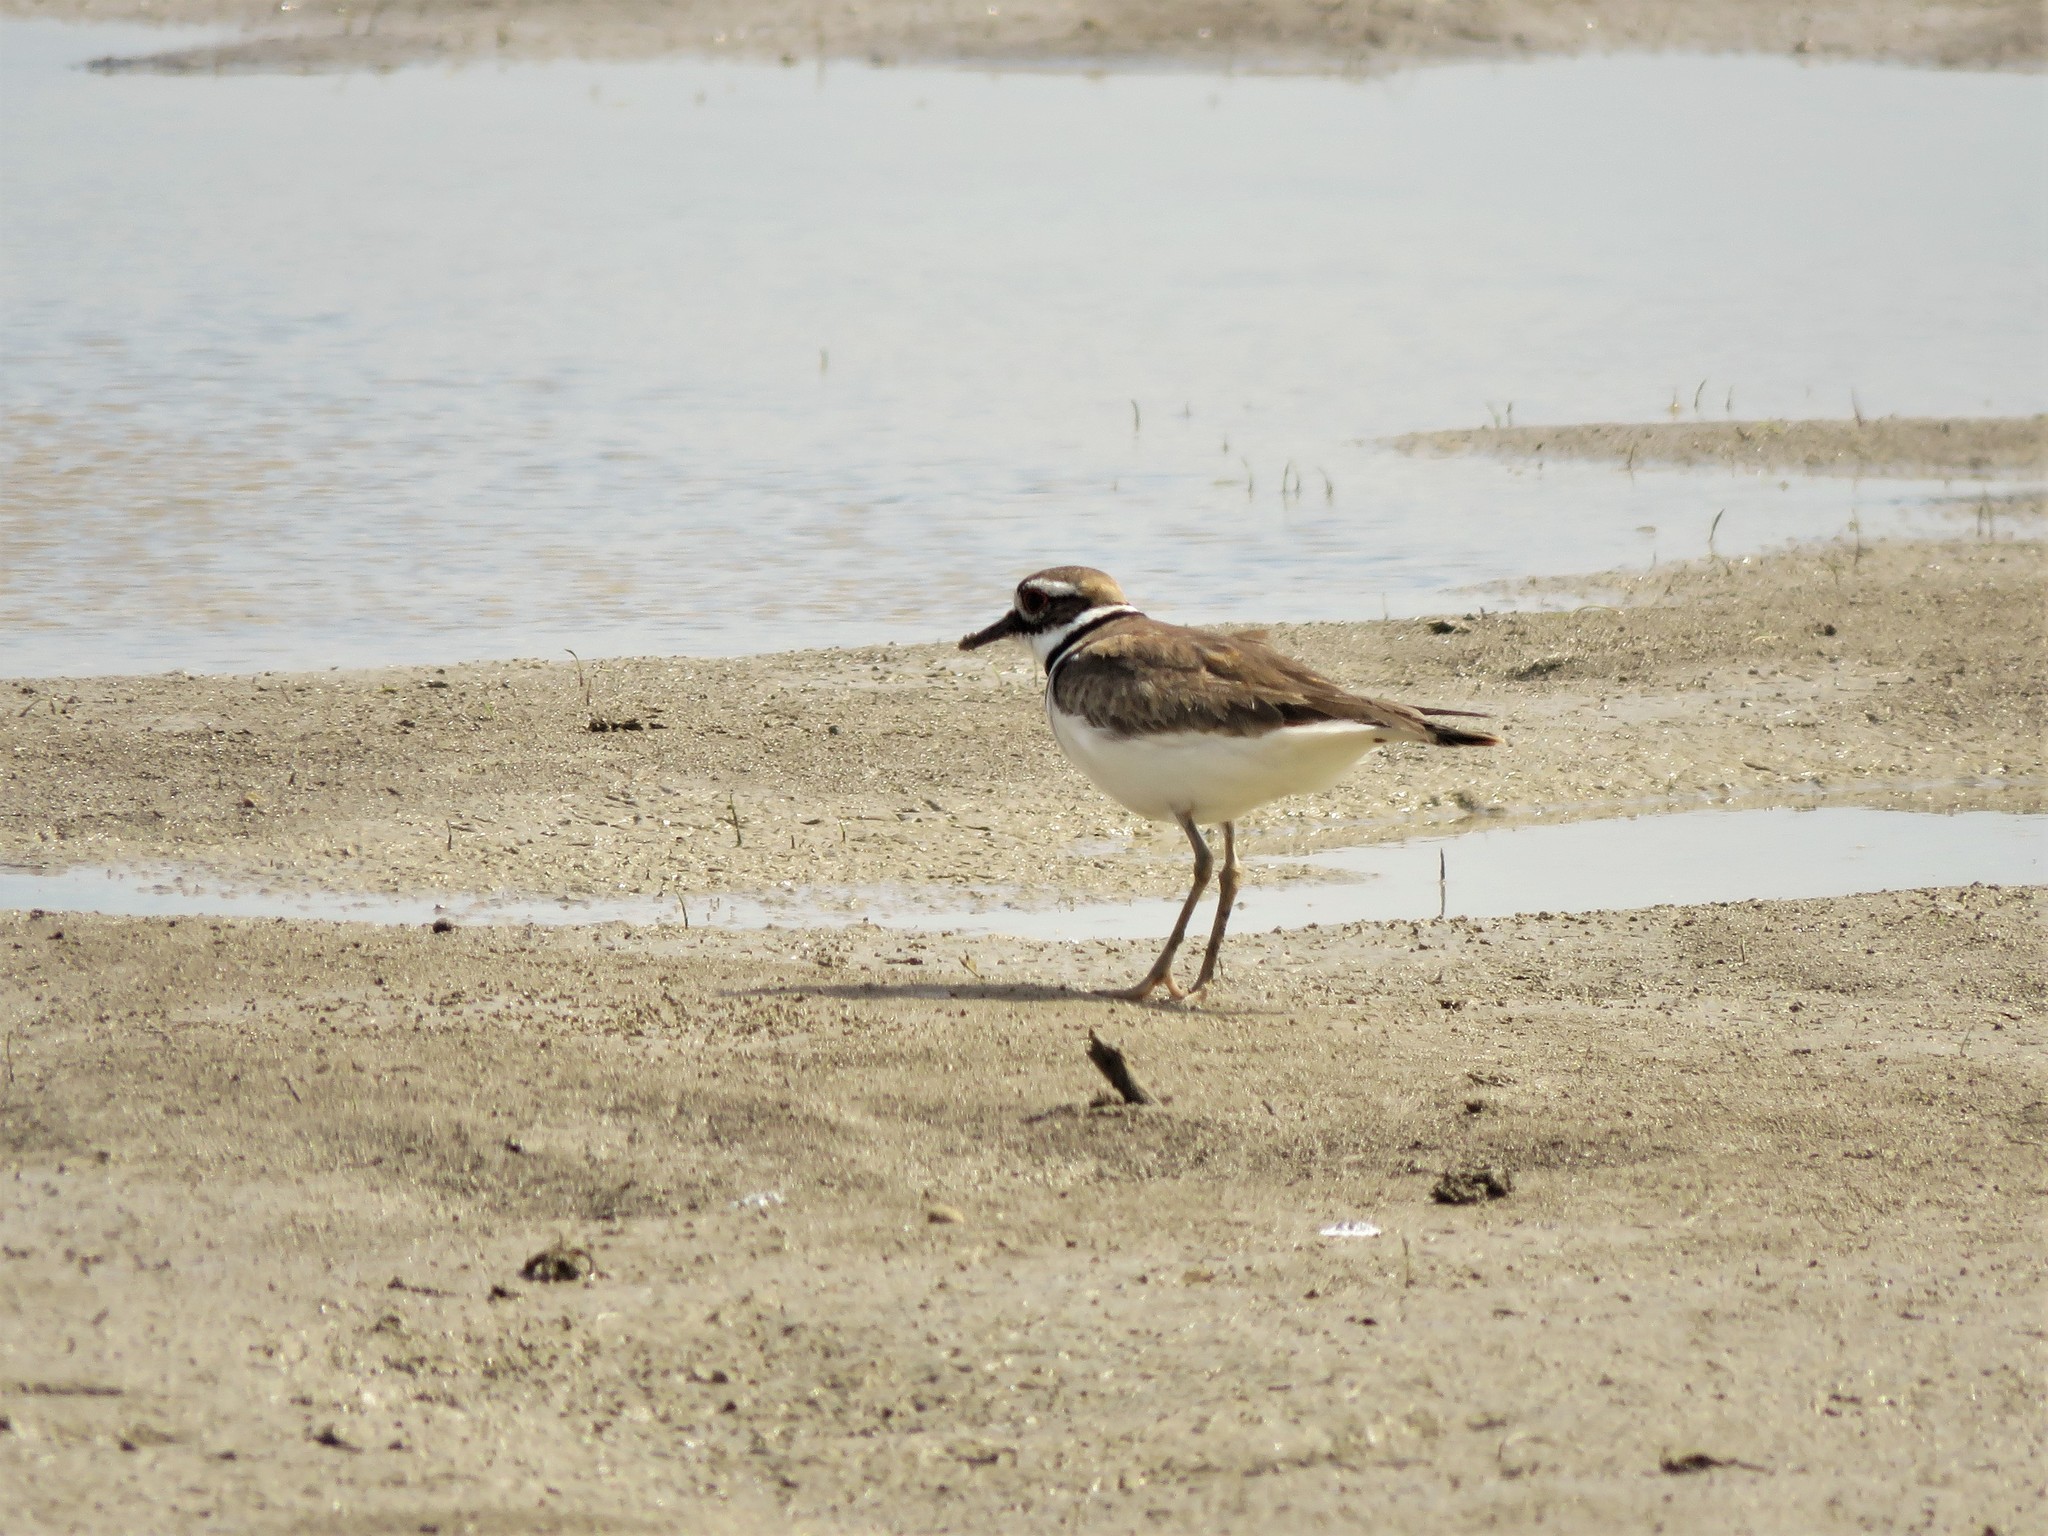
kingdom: Animalia
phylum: Chordata
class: Aves
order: Charadriiformes
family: Charadriidae
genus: Charadrius
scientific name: Charadrius vociferus
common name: Killdeer
